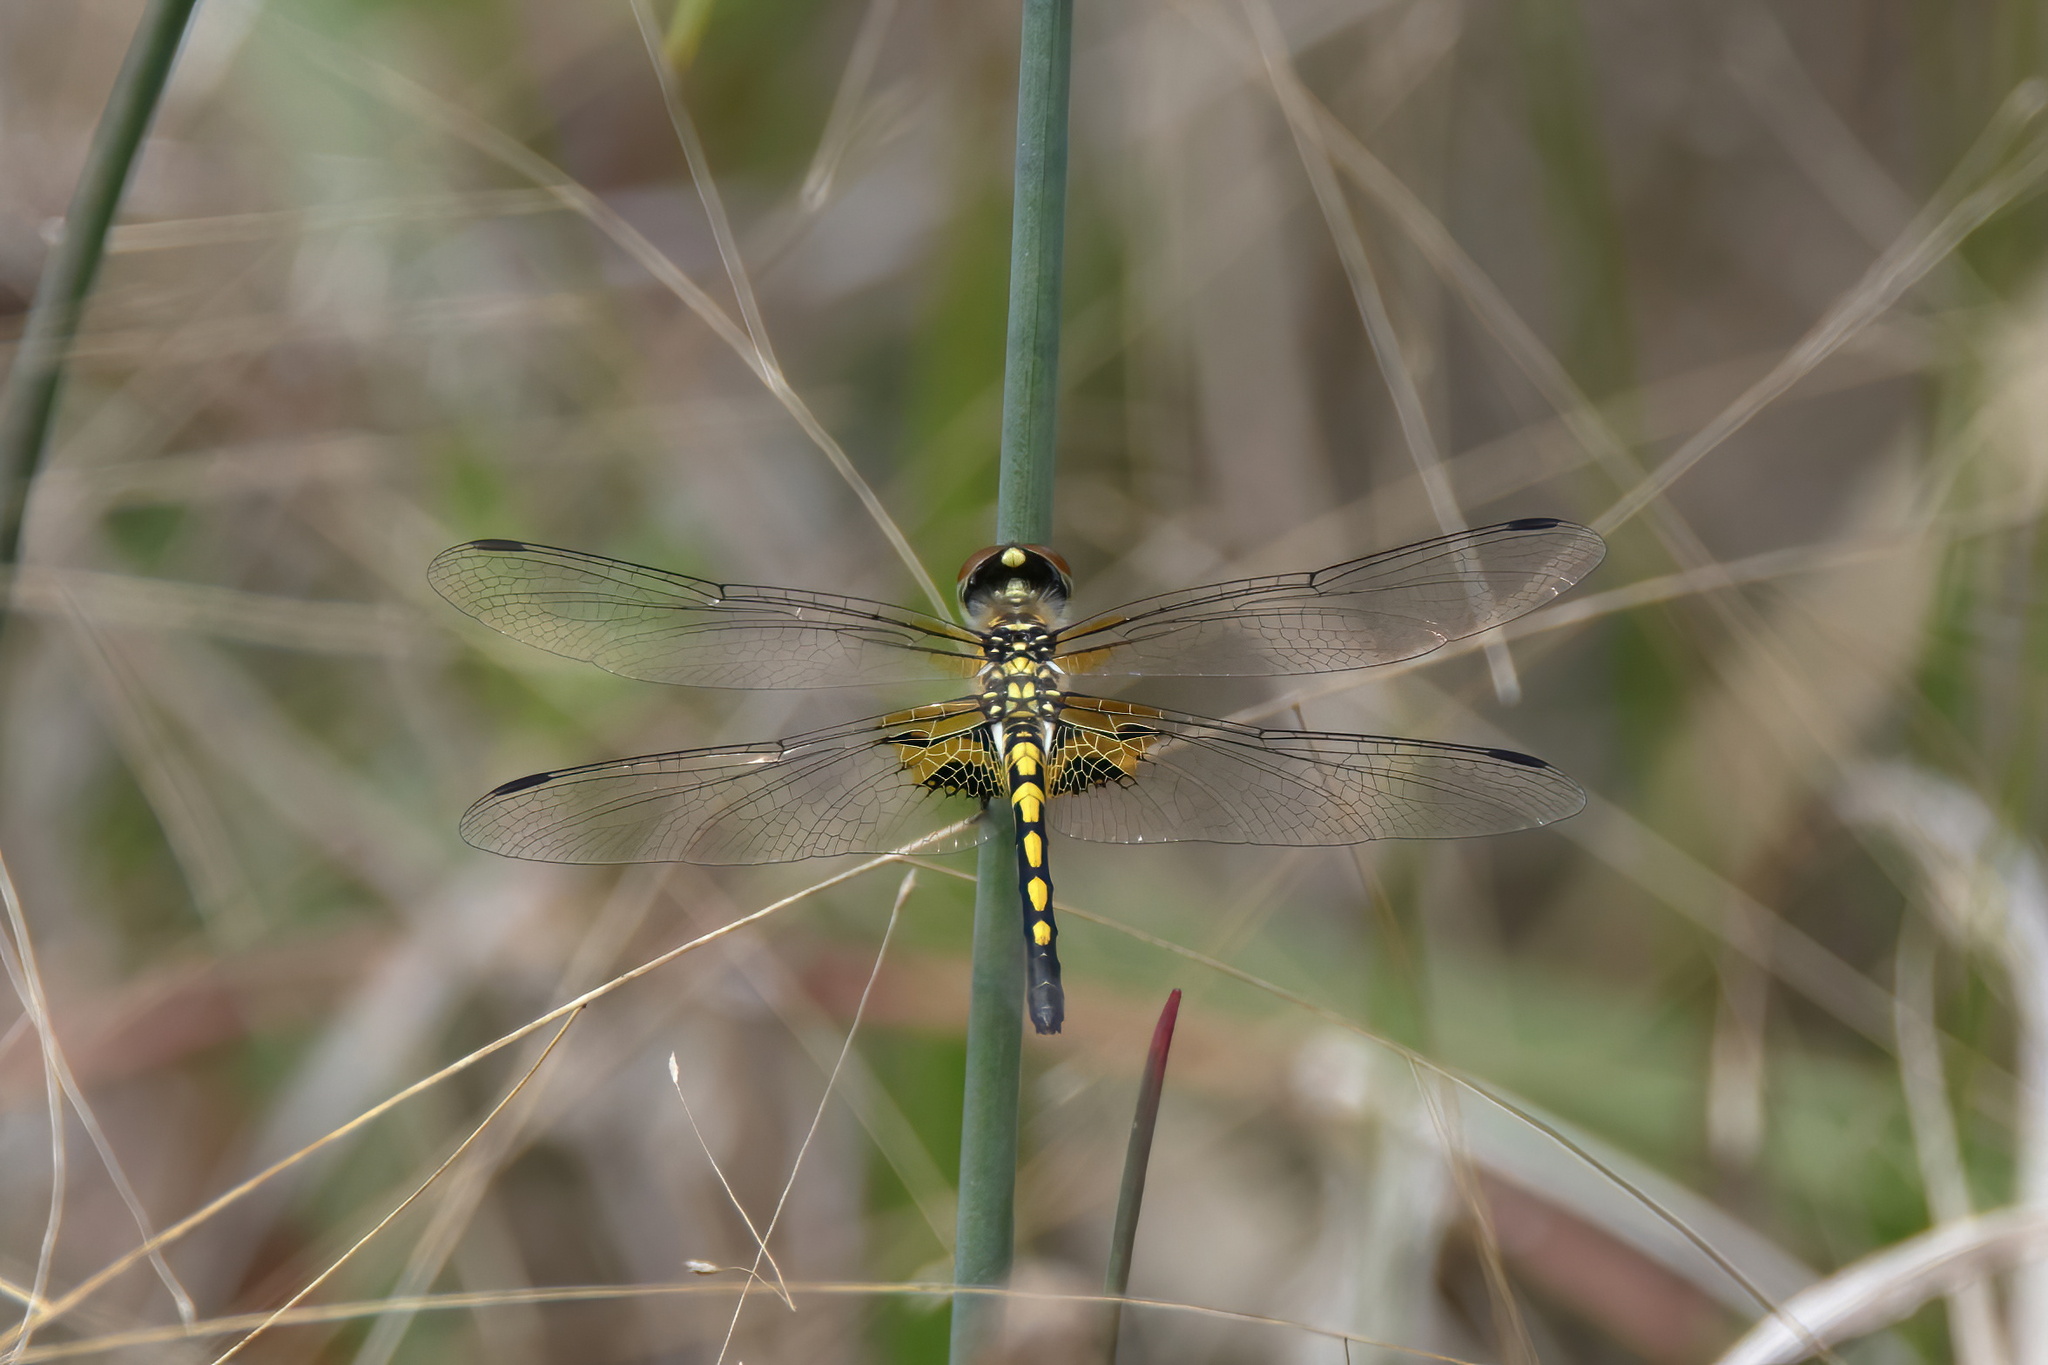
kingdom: Animalia
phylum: Arthropoda
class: Insecta
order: Odonata
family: Libellulidae
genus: Celithemis
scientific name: Celithemis ornata
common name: Ornate pennant
